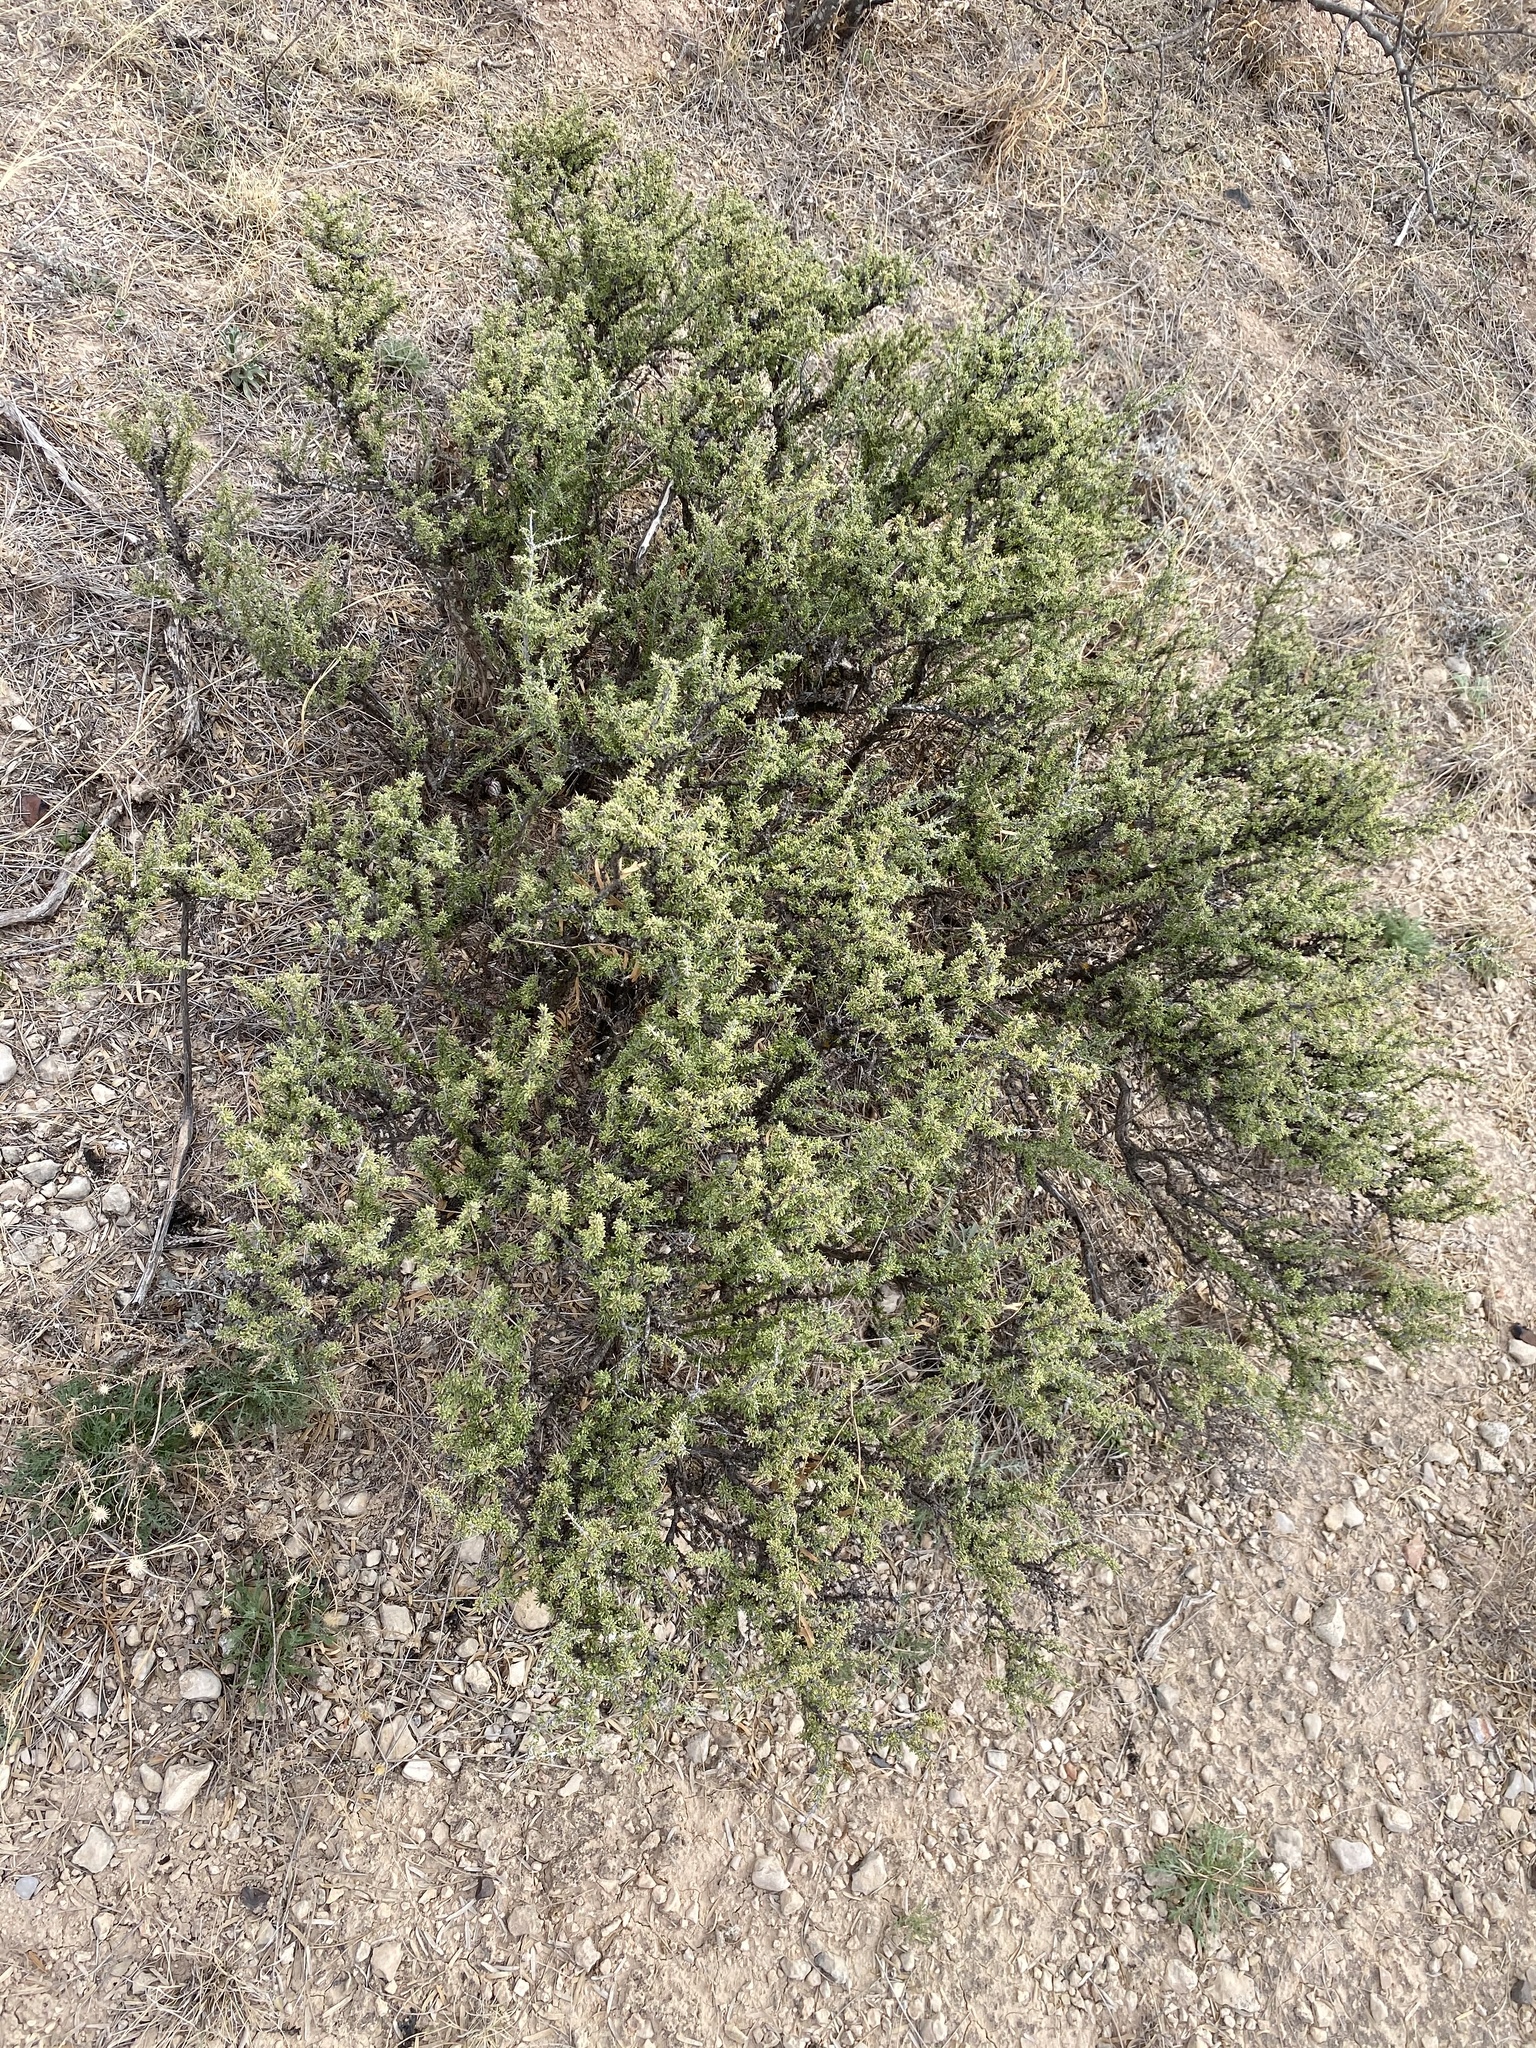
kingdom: Plantae
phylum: Tracheophyta
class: Magnoliopsida
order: Rosales
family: Rhamnaceae
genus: Condalia
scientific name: Condalia ericoides
